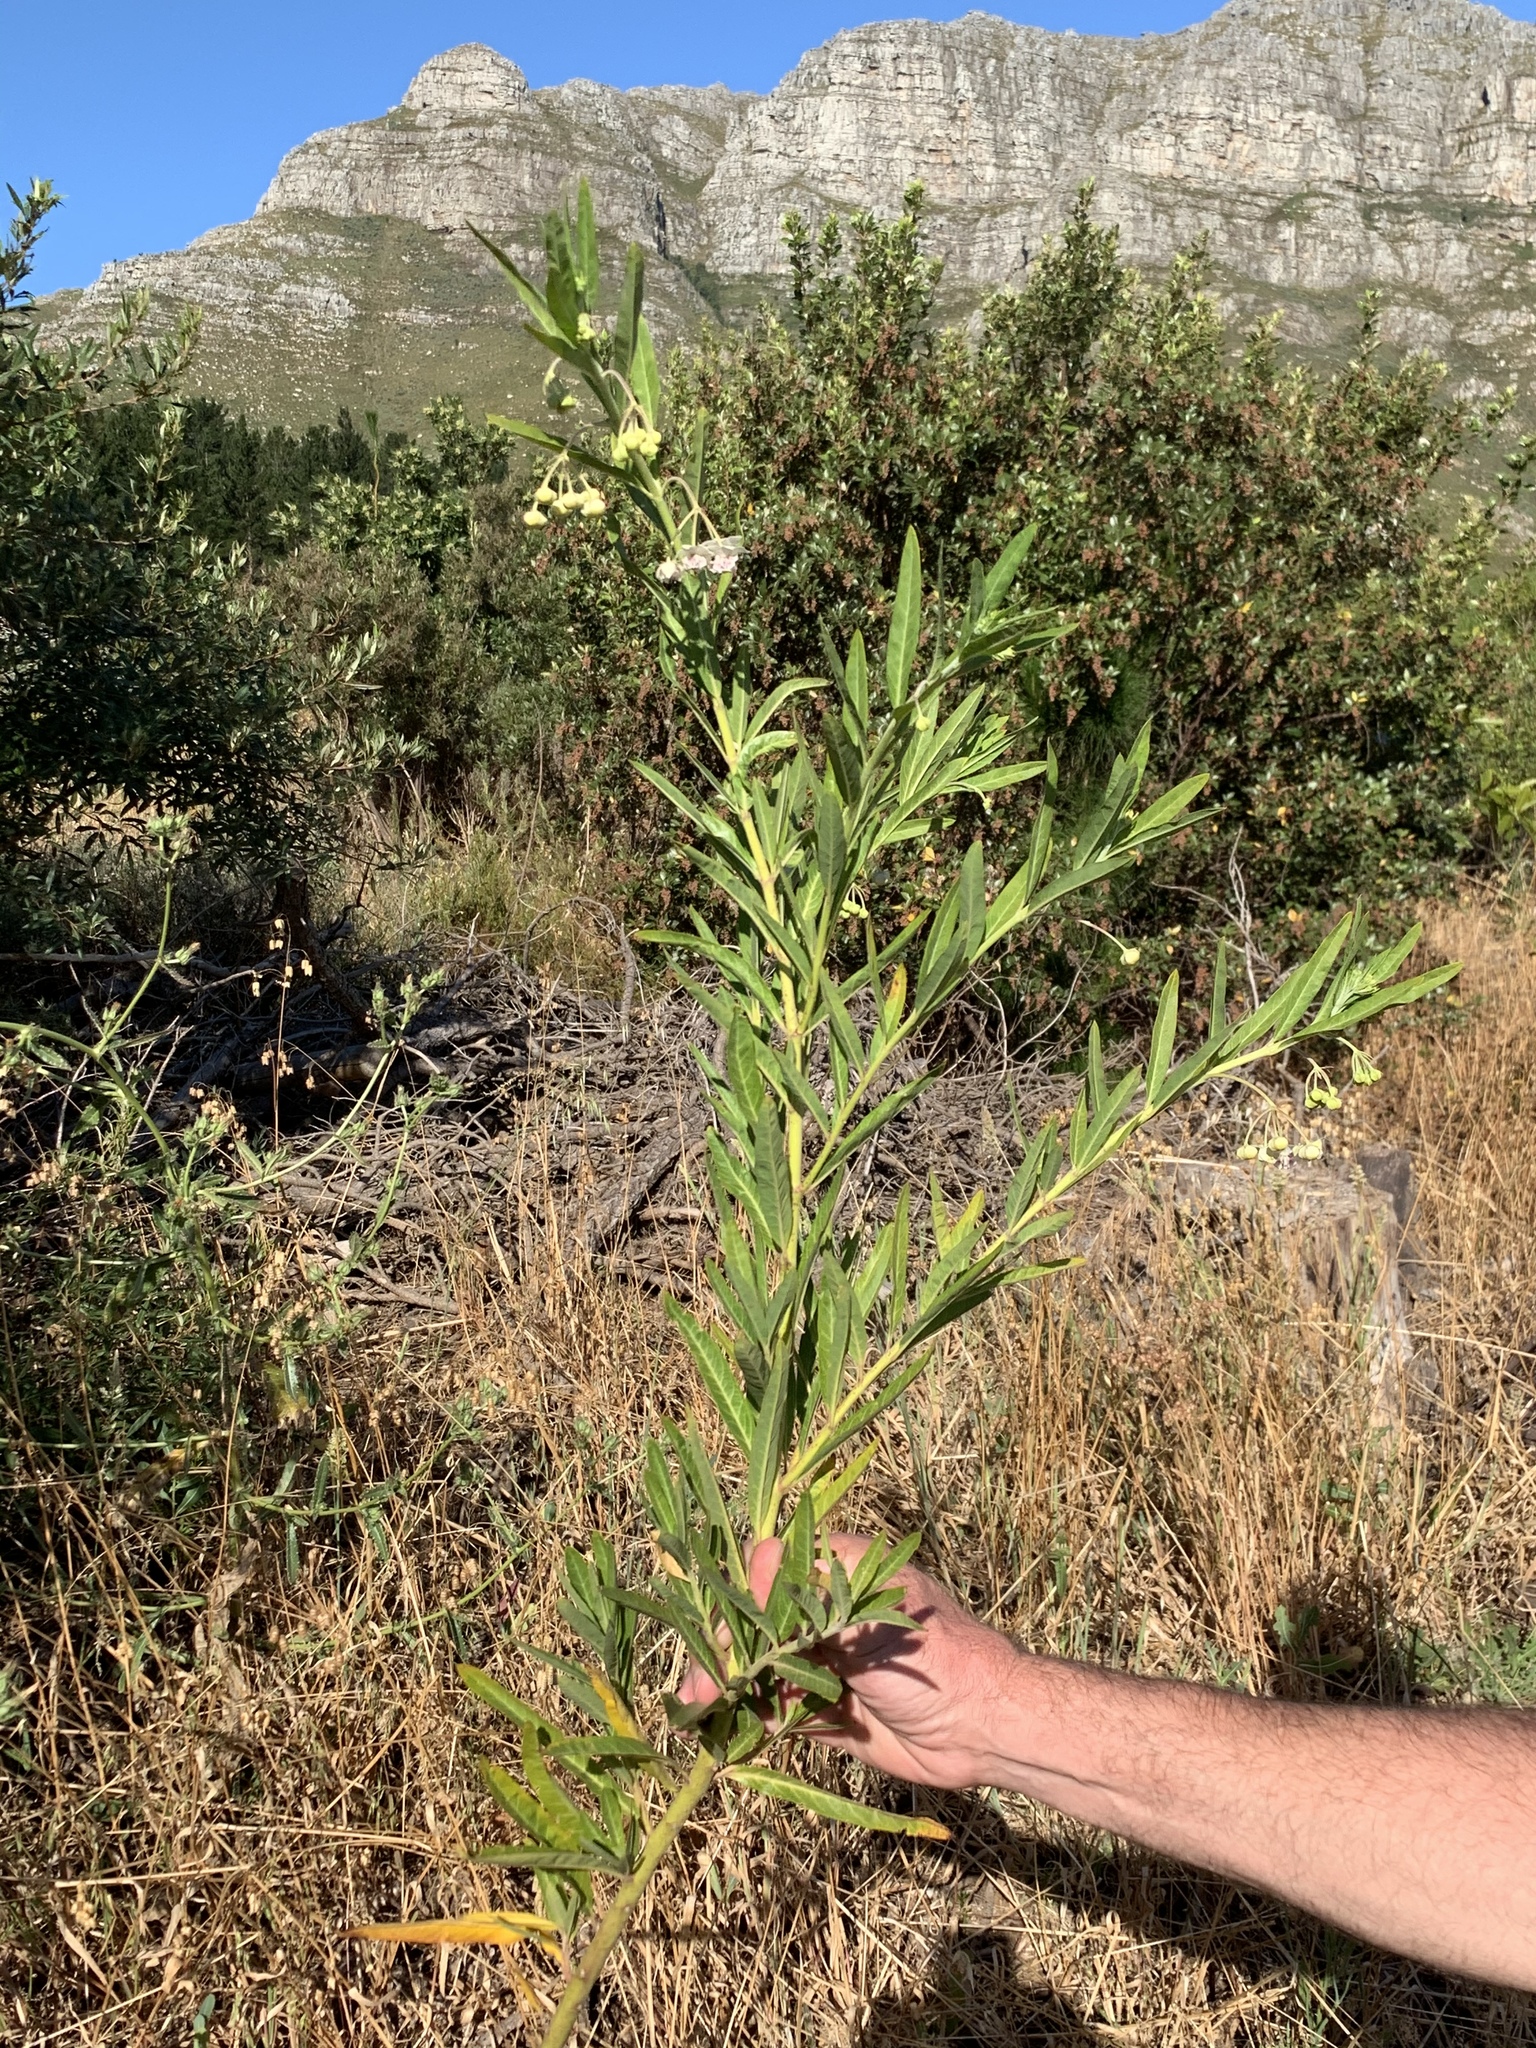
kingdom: Plantae
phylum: Tracheophyta
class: Magnoliopsida
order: Gentianales
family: Apocynaceae
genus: Gomphocarpus
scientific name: Gomphocarpus physocarpus
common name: Balloon cotton bush
